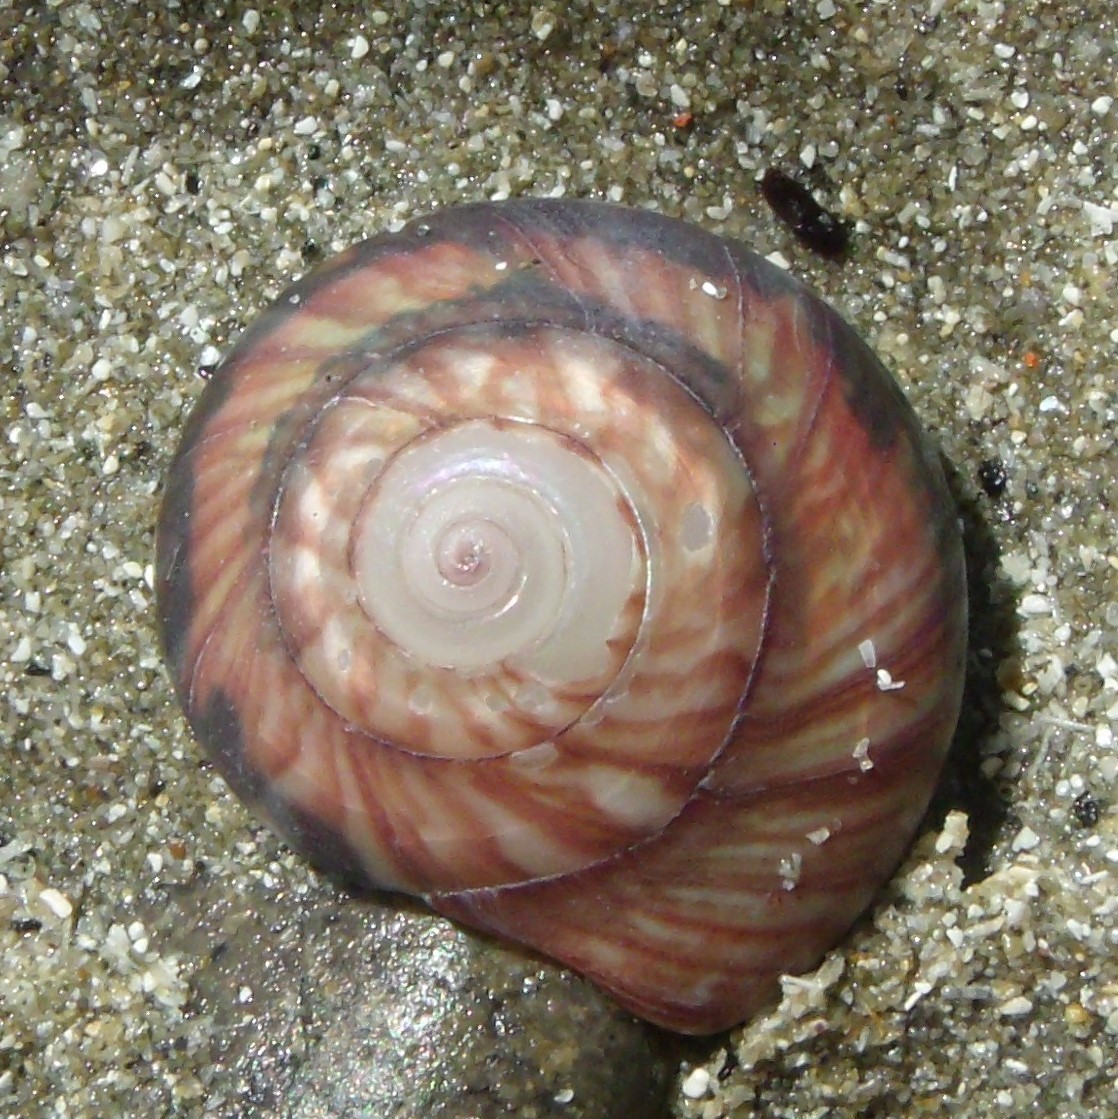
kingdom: Animalia
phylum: Mollusca
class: Gastropoda
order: Trochida
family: Trochidae
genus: Zethalia
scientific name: Zethalia zelandica
